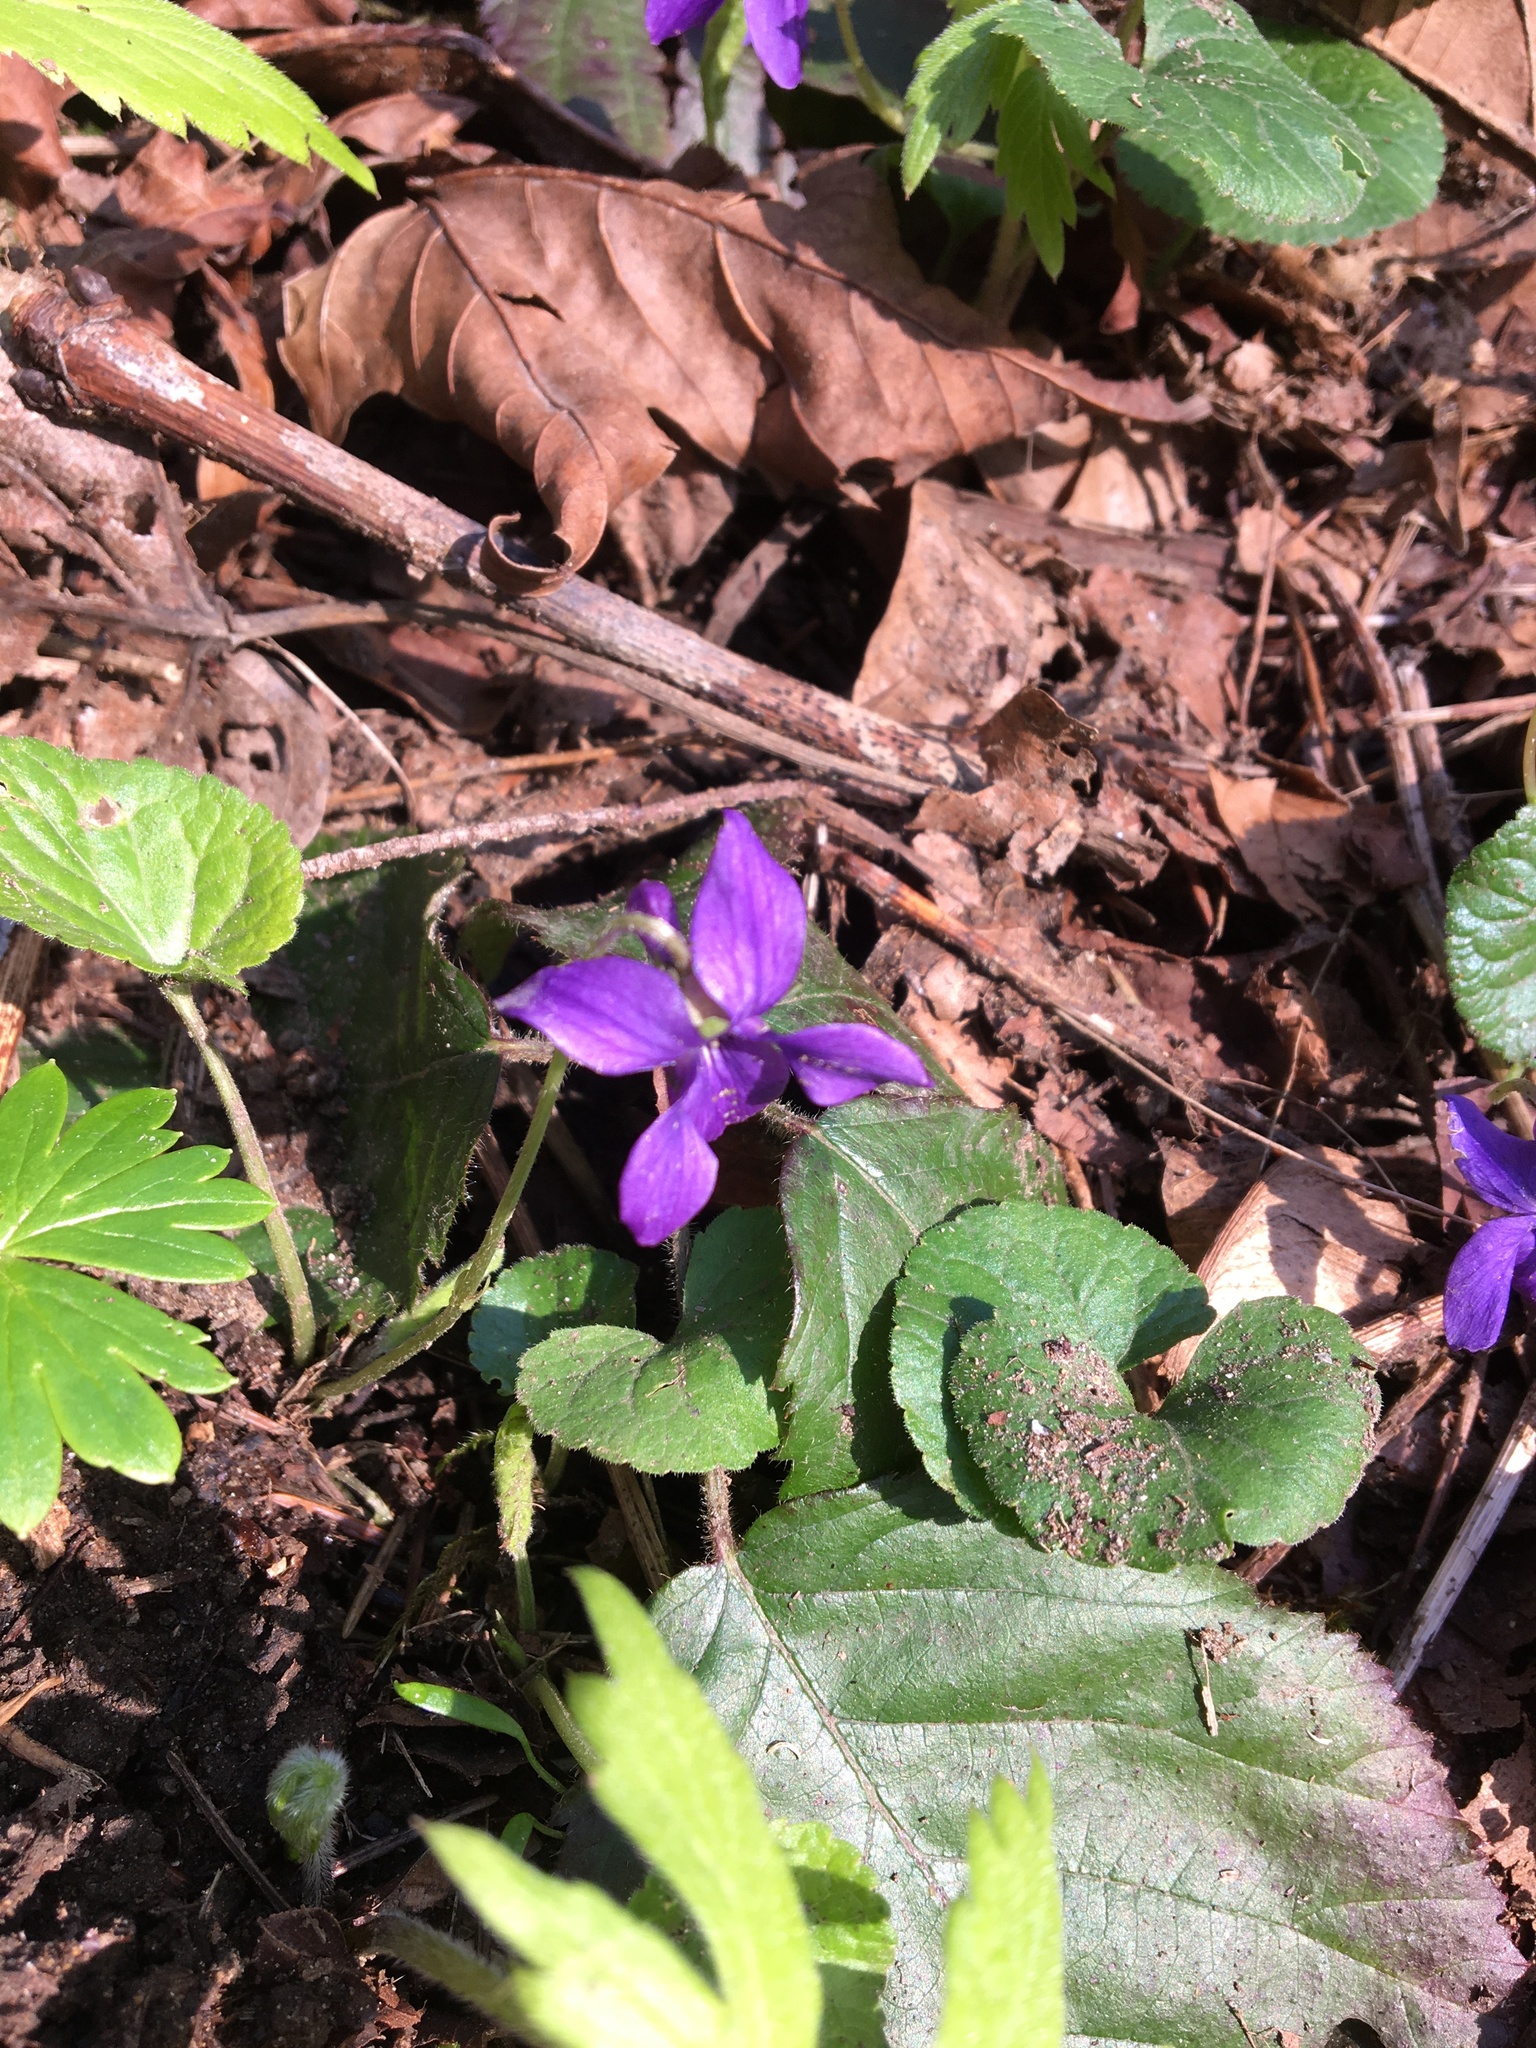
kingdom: Plantae
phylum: Tracheophyta
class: Magnoliopsida
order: Malpighiales
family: Violaceae
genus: Viola
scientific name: Viola odorata
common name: Sweet violet
